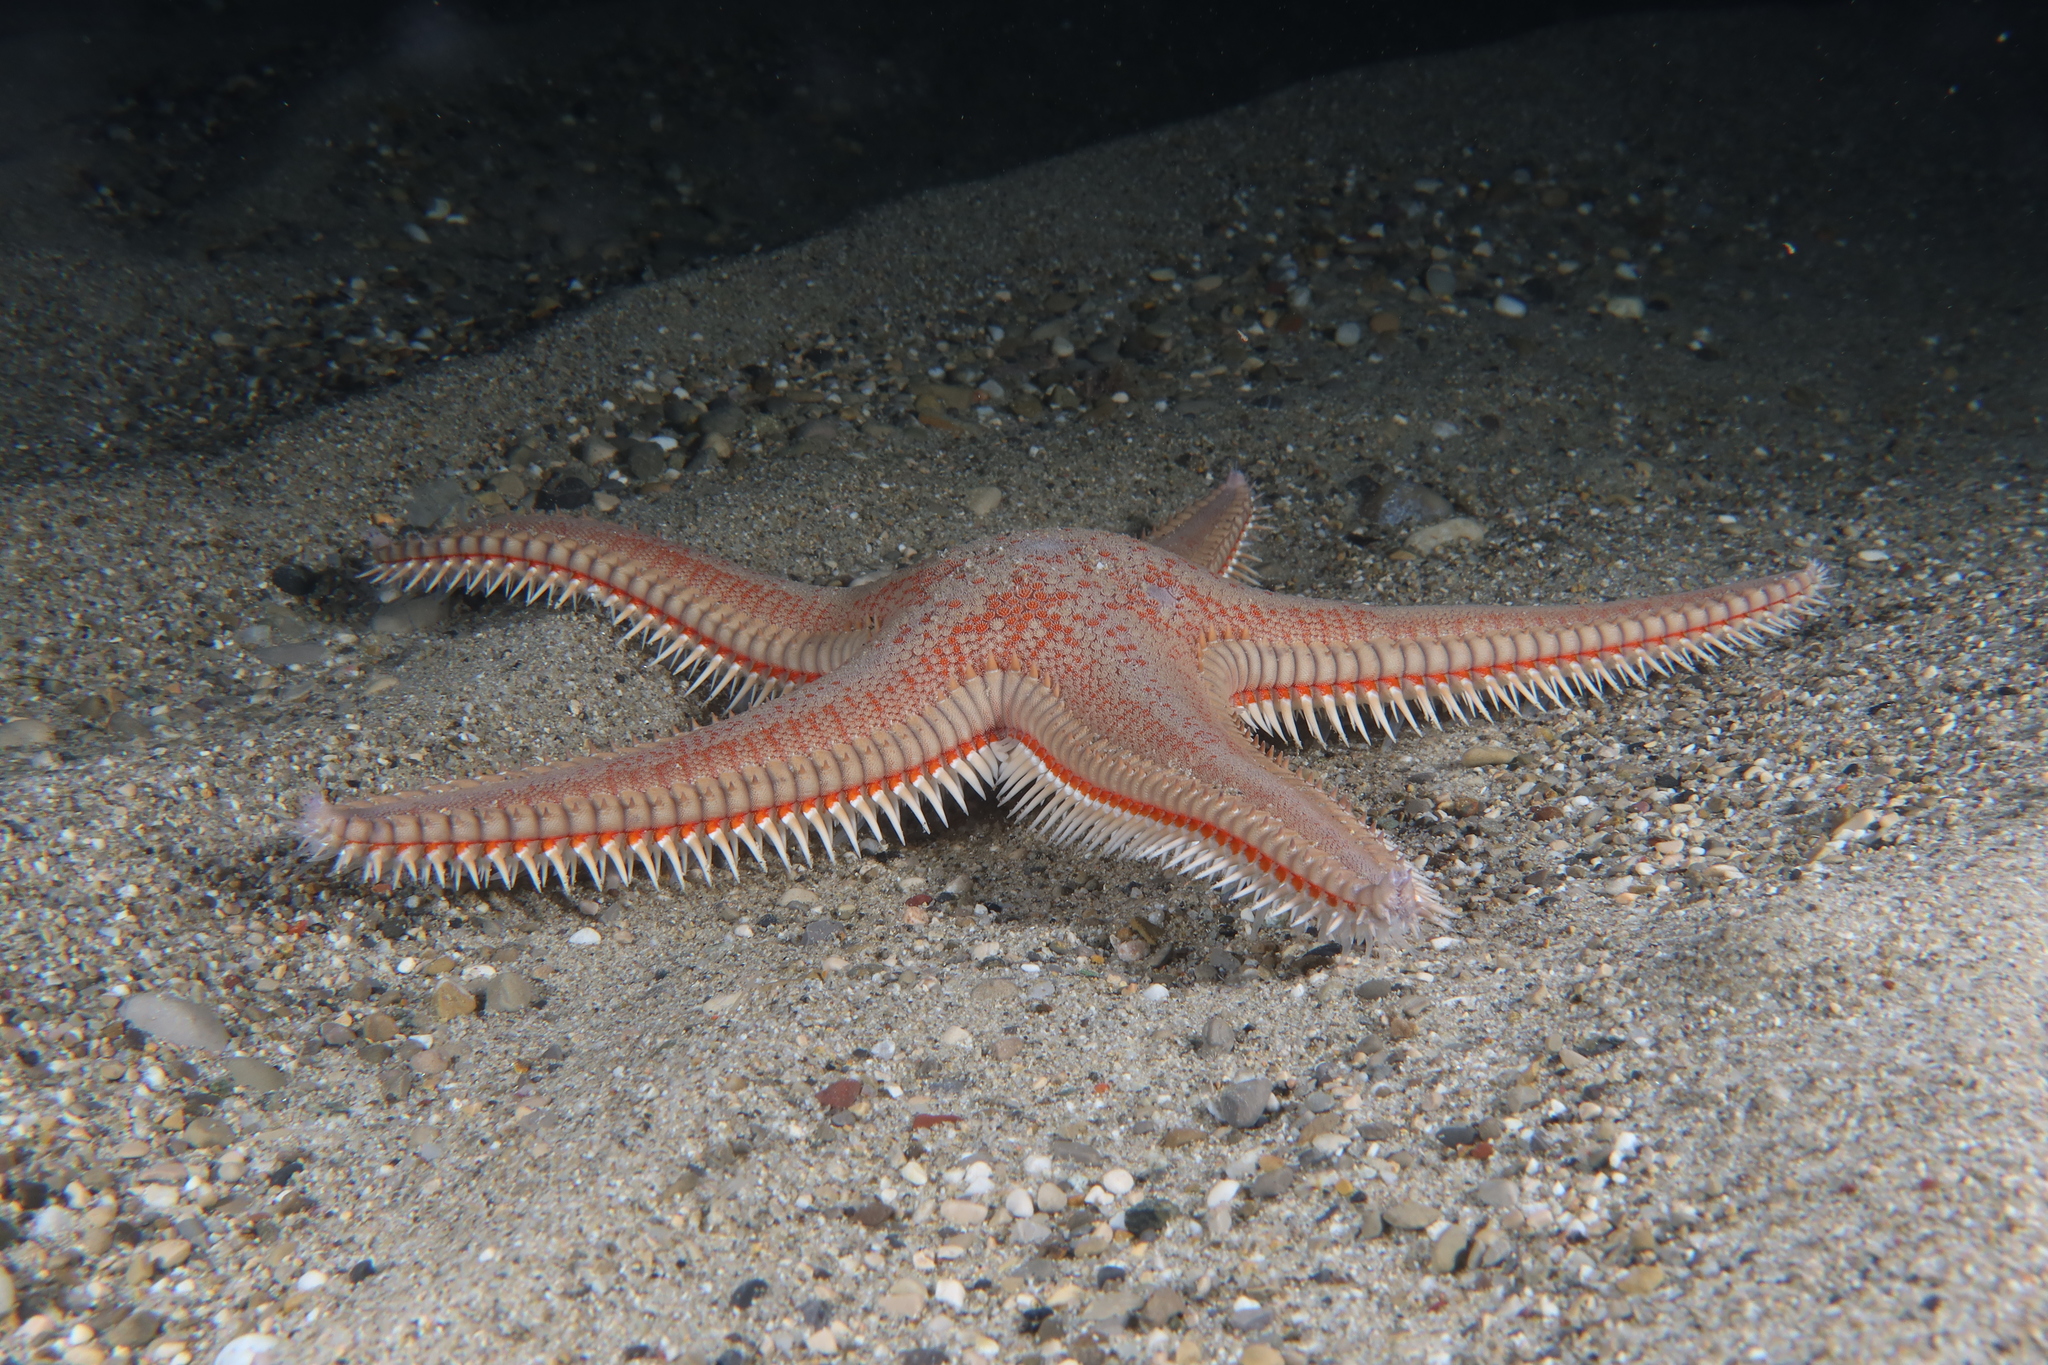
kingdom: Animalia
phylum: Echinodermata
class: Asteroidea
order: Paxillosida
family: Astropectinidae
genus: Astropecten
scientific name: Astropecten aranciacus
